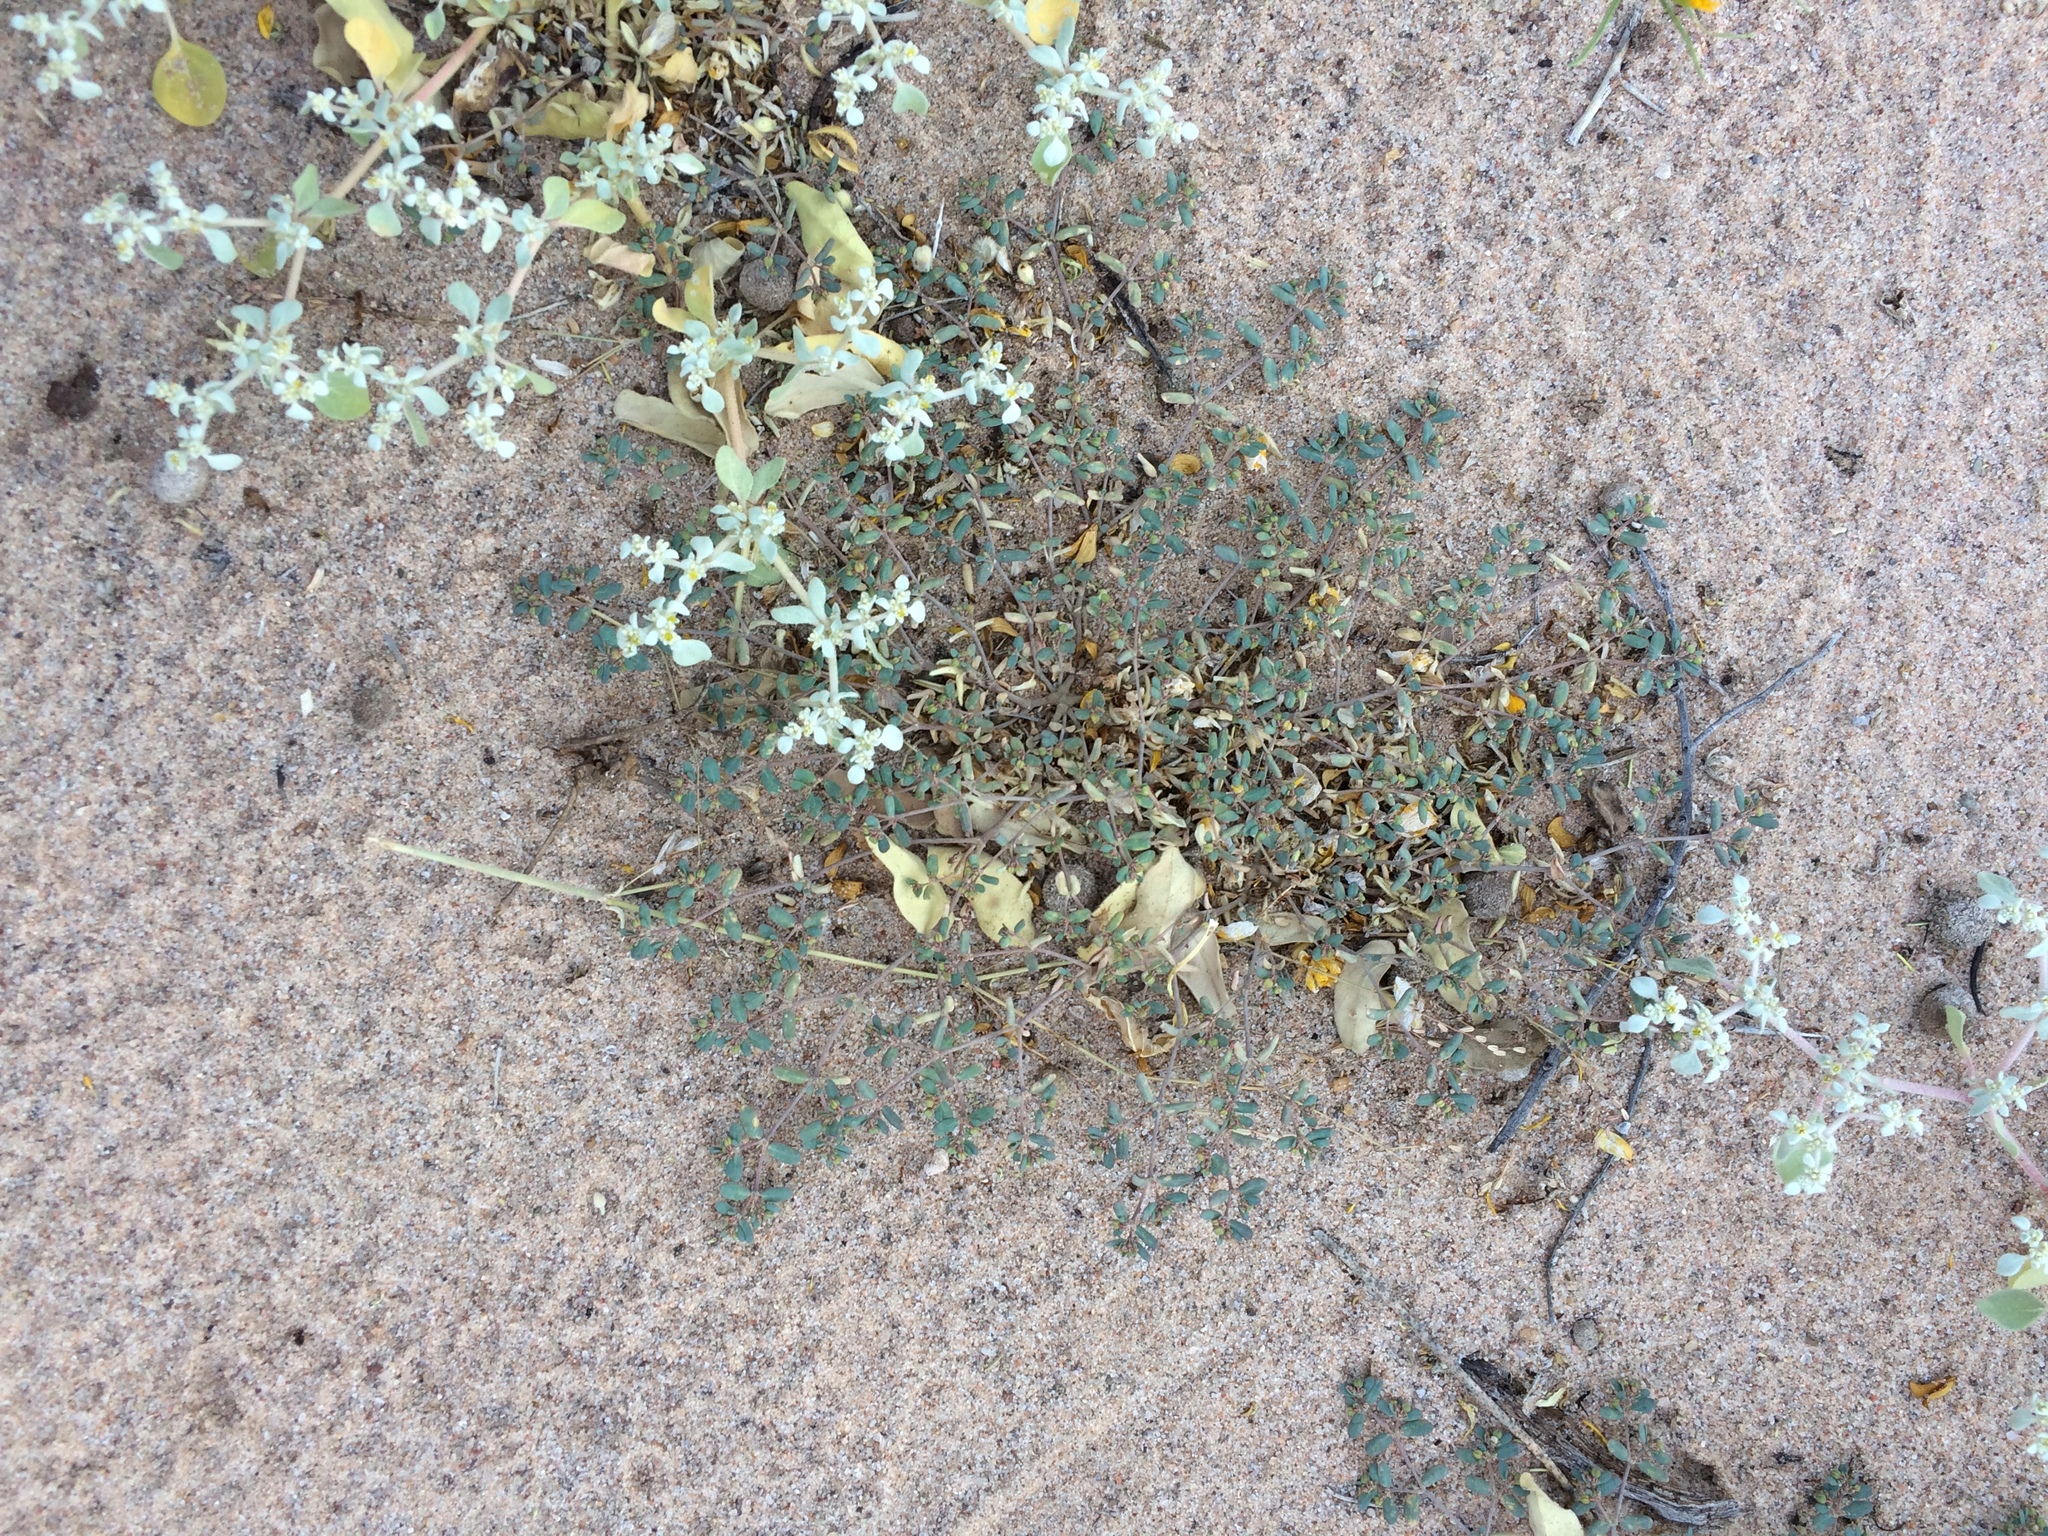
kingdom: Plantae
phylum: Tracheophyta
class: Magnoliopsida
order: Malpighiales
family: Euphorbiaceae
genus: Euphorbia
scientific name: Euphorbia golondrina
